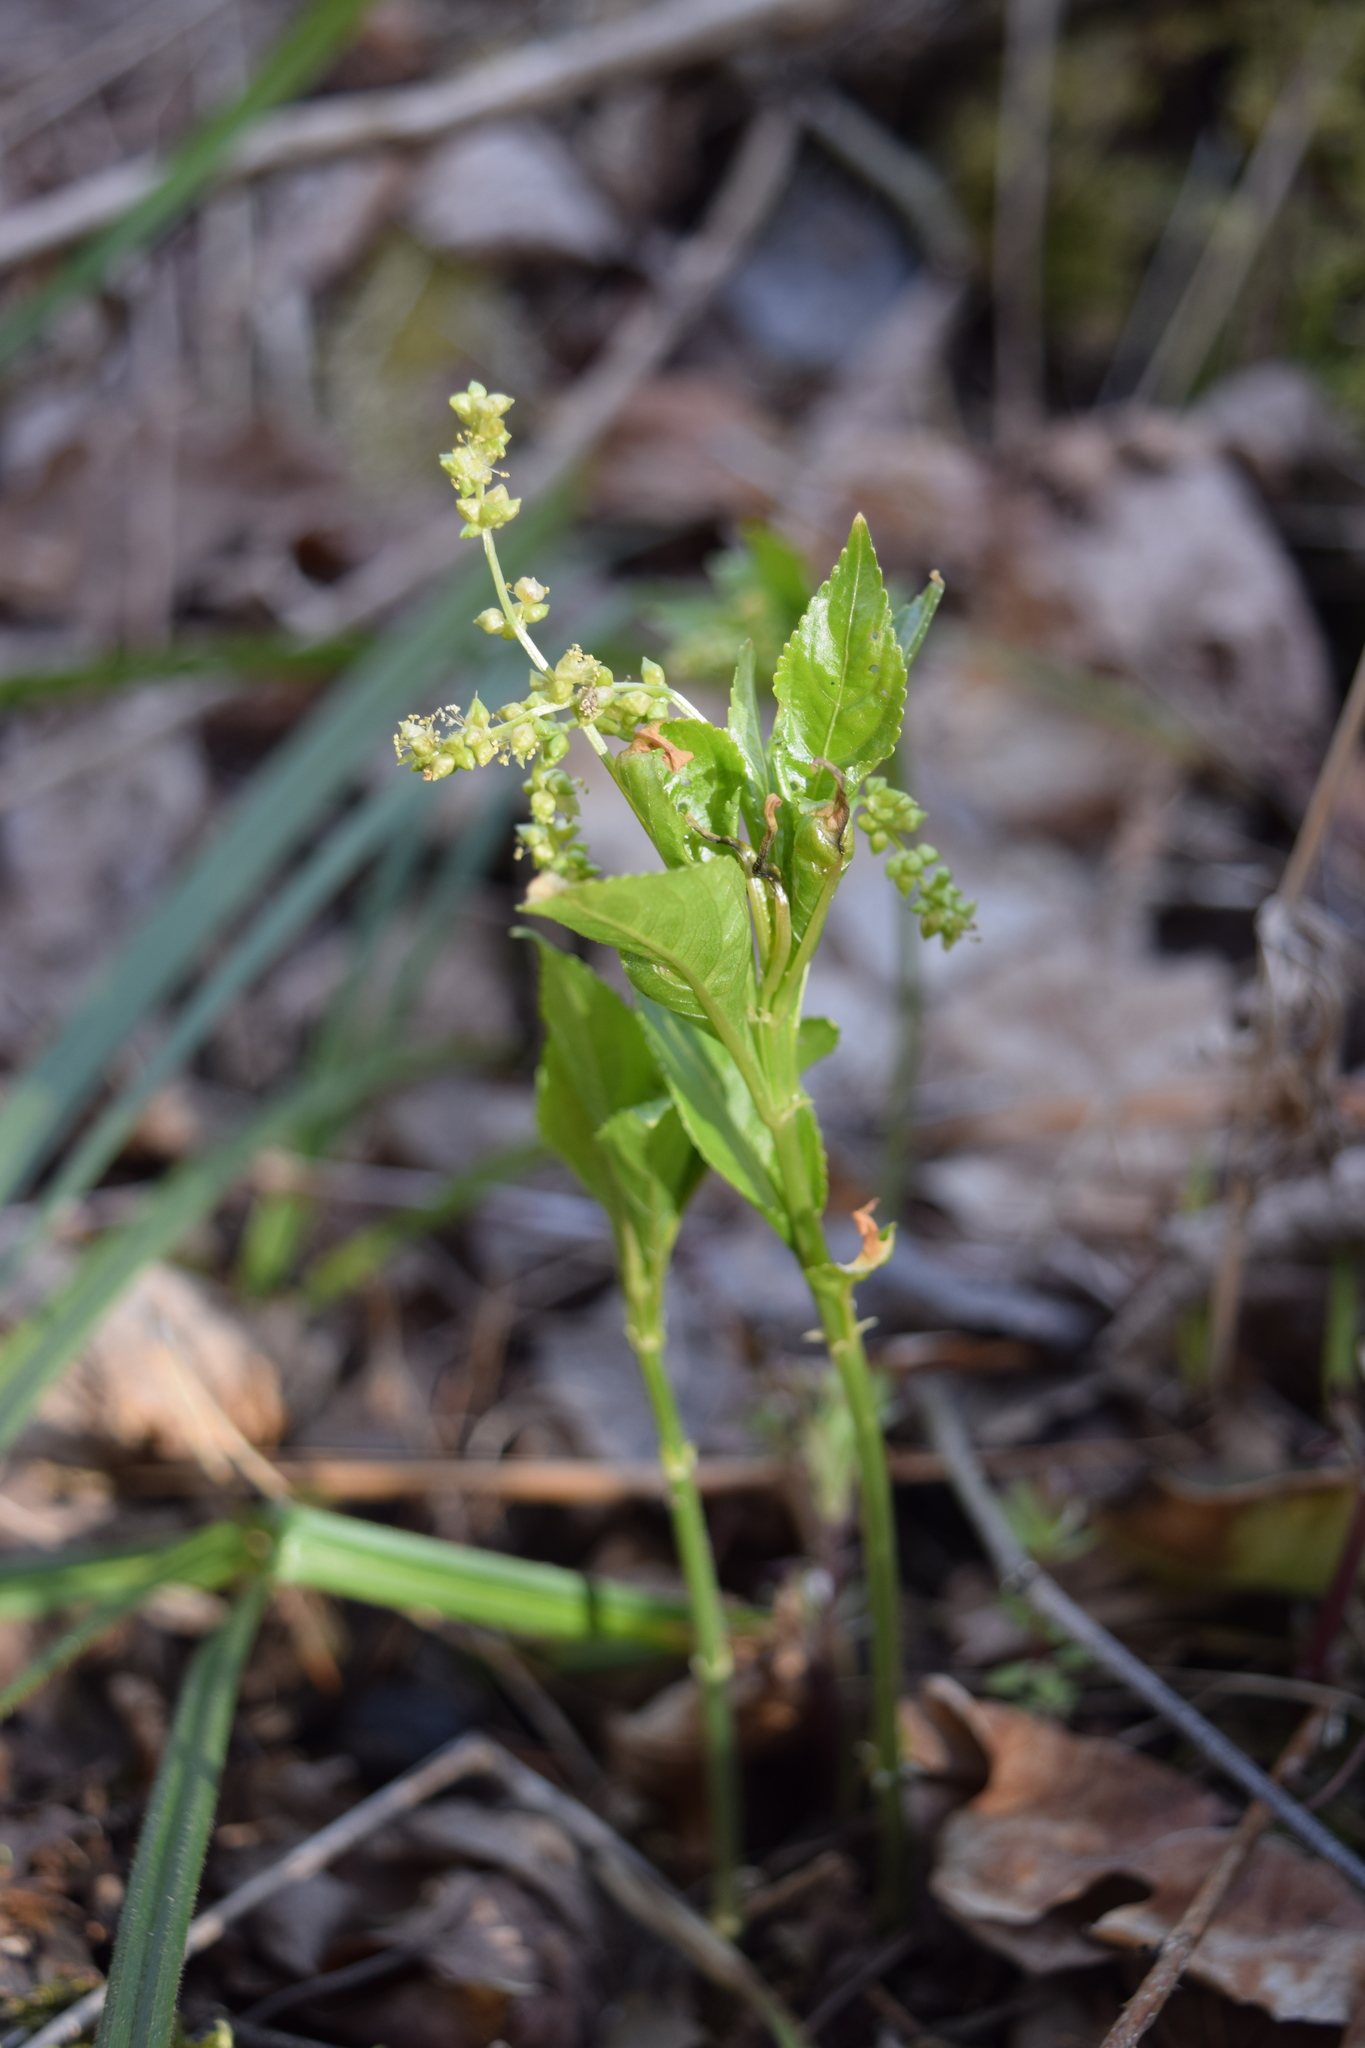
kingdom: Plantae
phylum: Tracheophyta
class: Magnoliopsida
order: Malpighiales
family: Euphorbiaceae
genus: Mercurialis
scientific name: Mercurialis perennis
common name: Dog mercury
